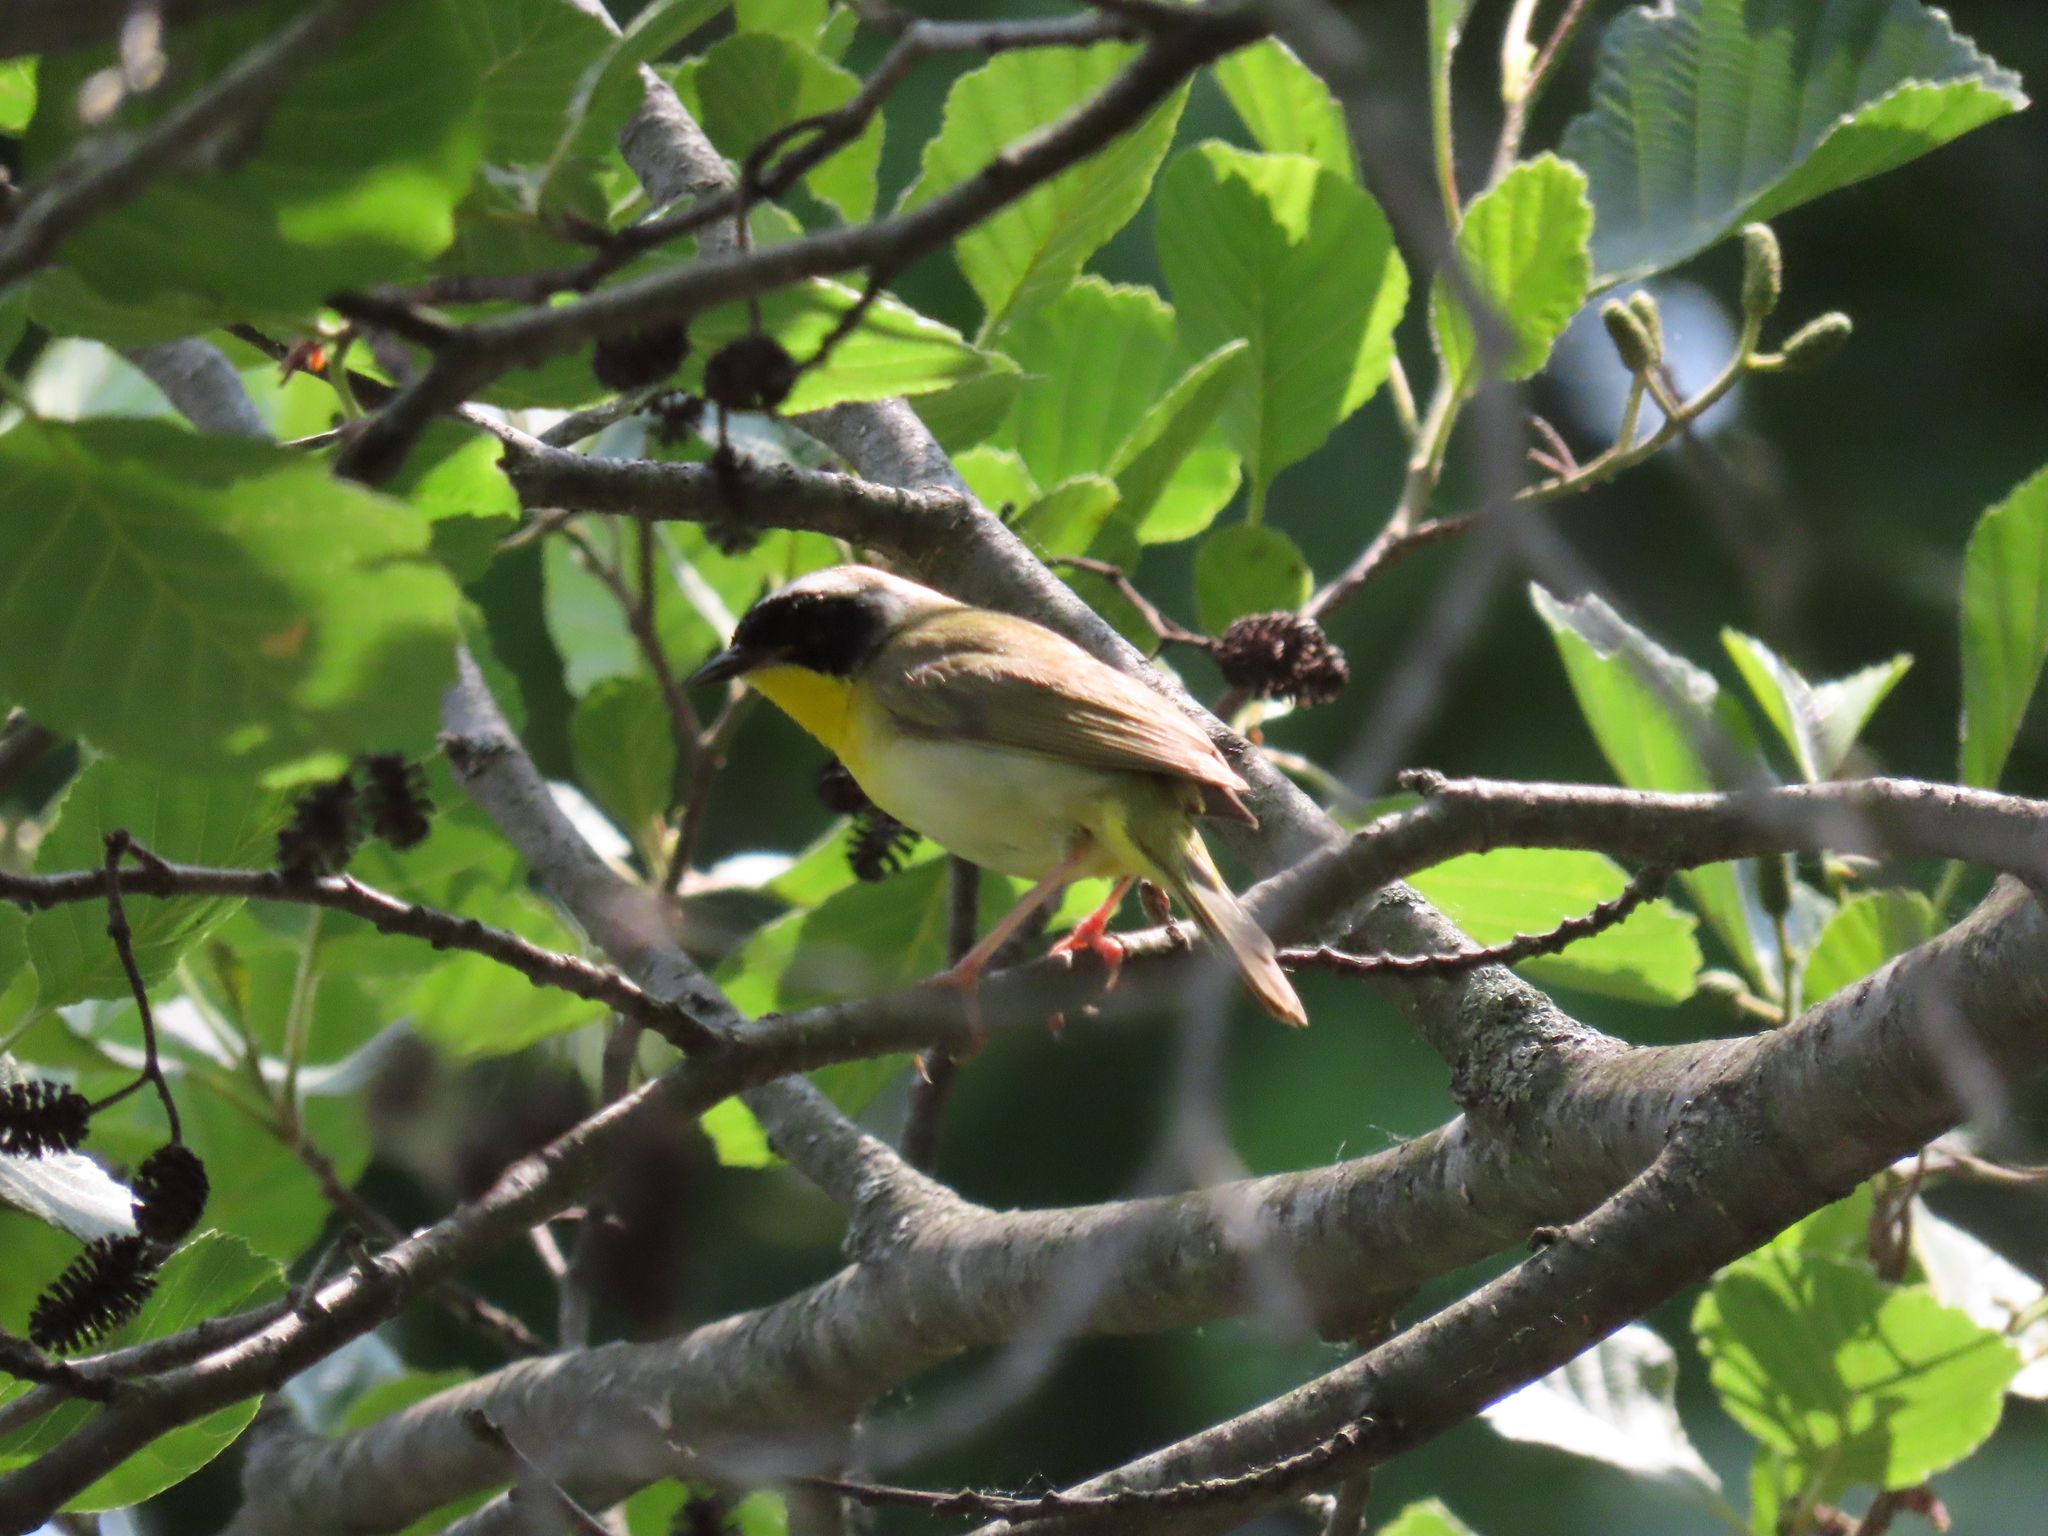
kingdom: Animalia
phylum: Chordata
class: Aves
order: Passeriformes
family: Parulidae
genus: Geothlypis
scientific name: Geothlypis trichas
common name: Common yellowthroat
